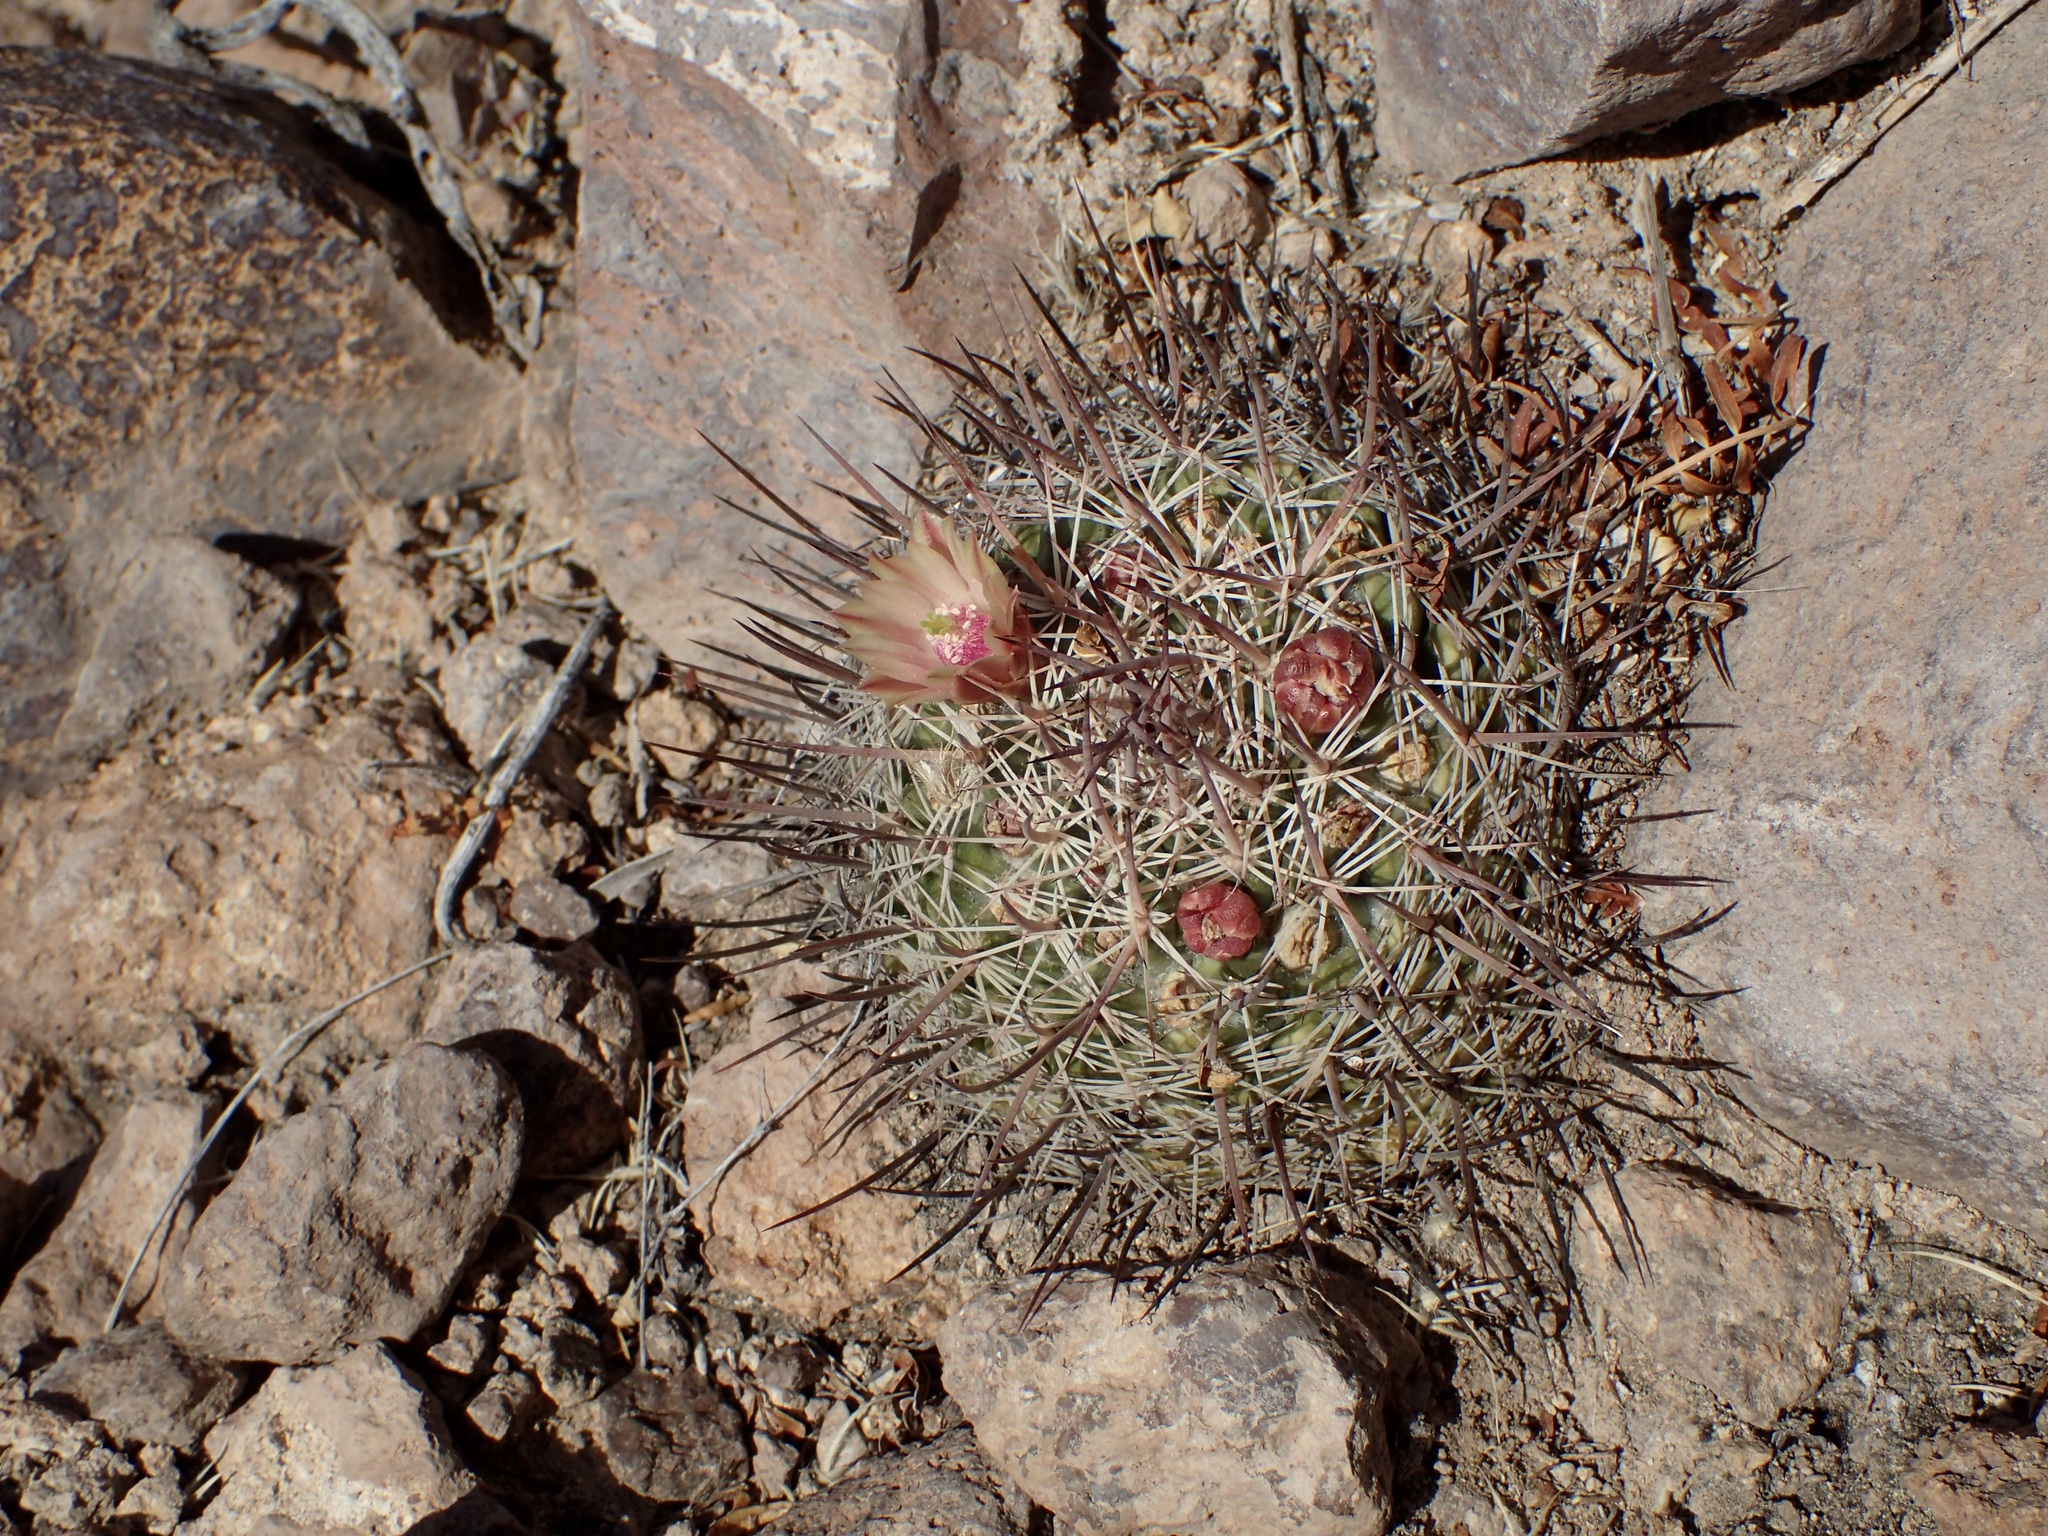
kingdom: Plantae
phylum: Tracheophyta
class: Magnoliopsida
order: Caryophyllales
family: Cactaceae
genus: Mammillaria
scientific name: Mammillaria johnstonii
